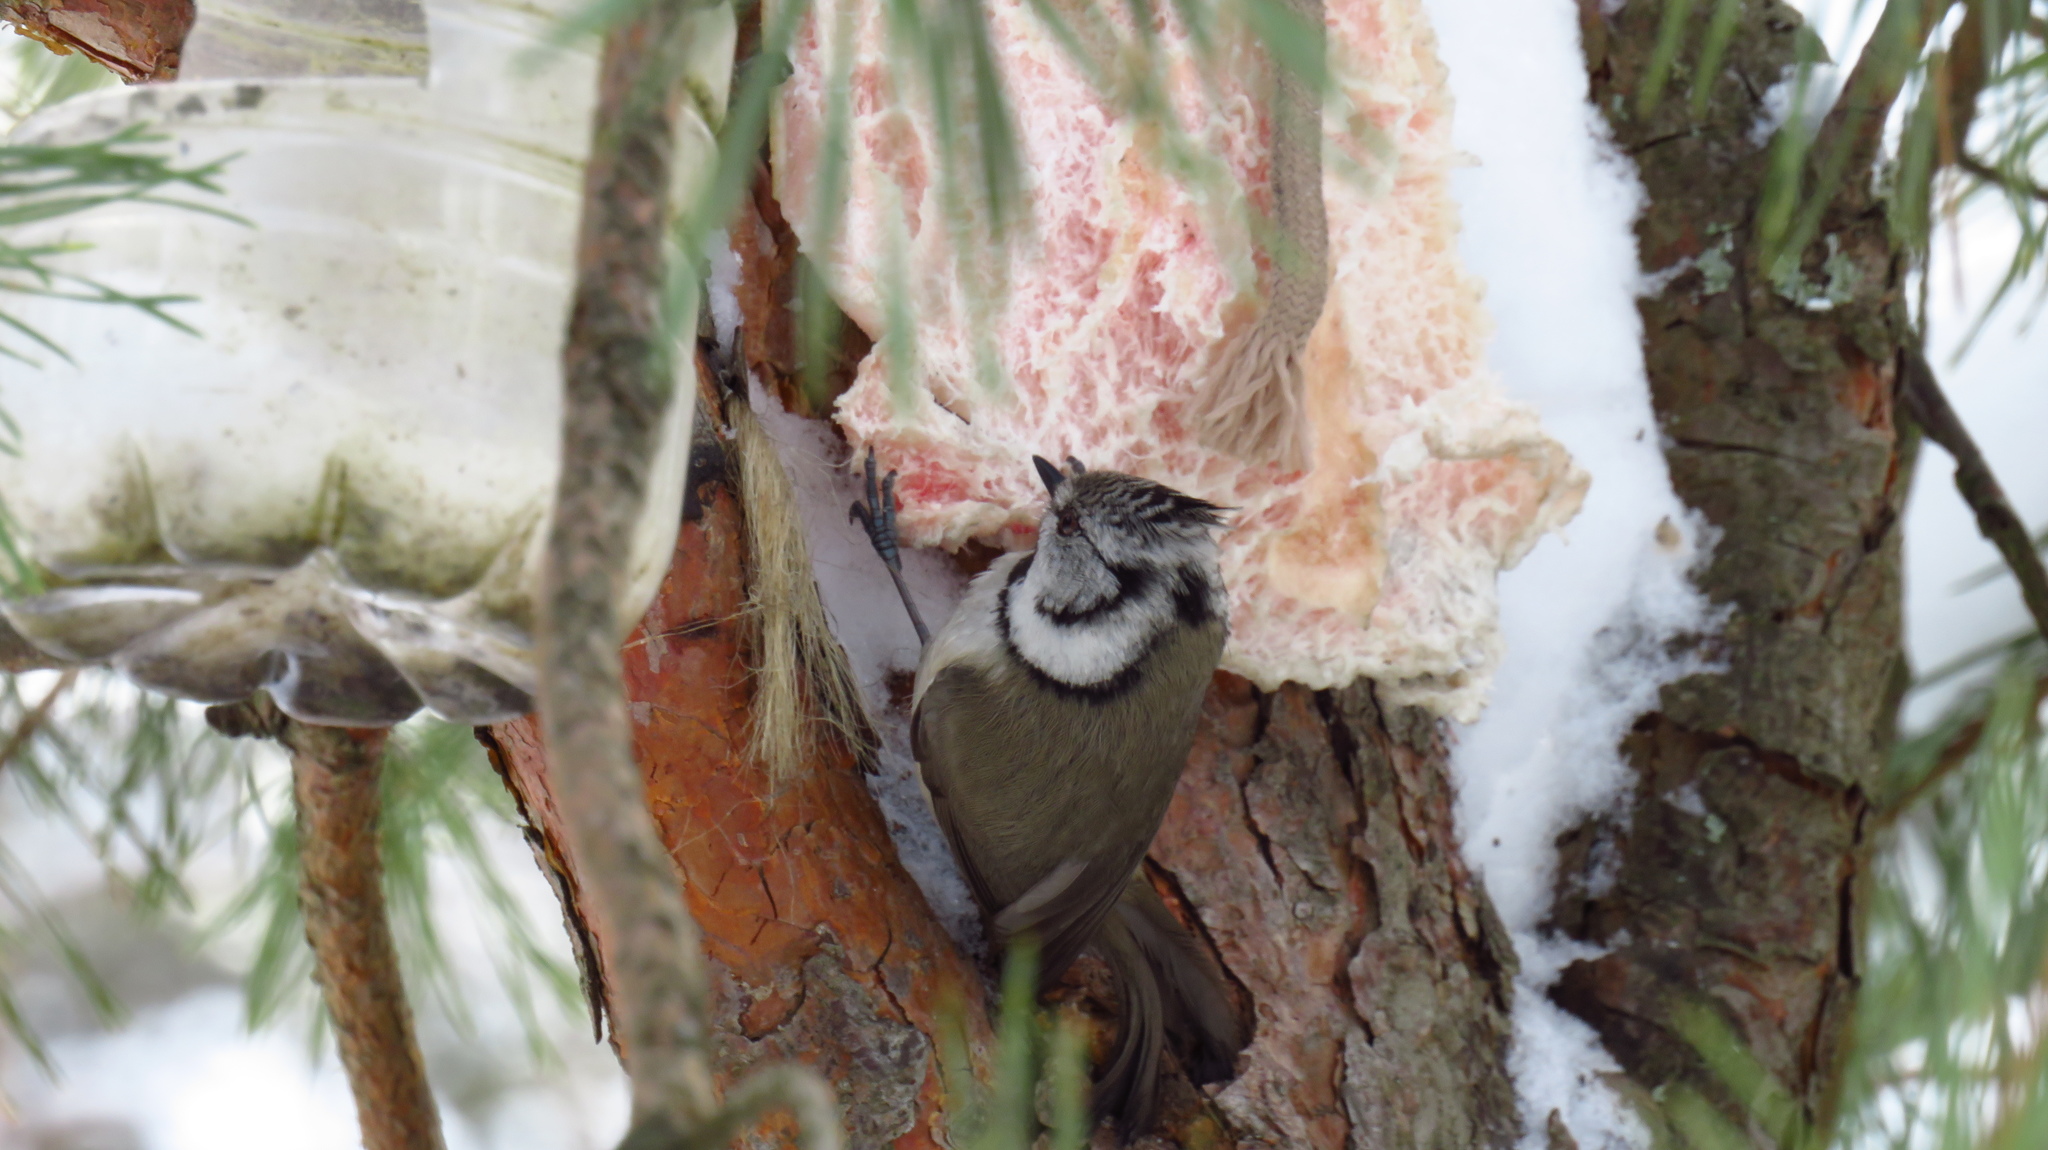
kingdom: Animalia
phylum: Chordata
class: Aves
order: Passeriformes
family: Paridae
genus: Lophophanes
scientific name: Lophophanes cristatus
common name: European crested tit
